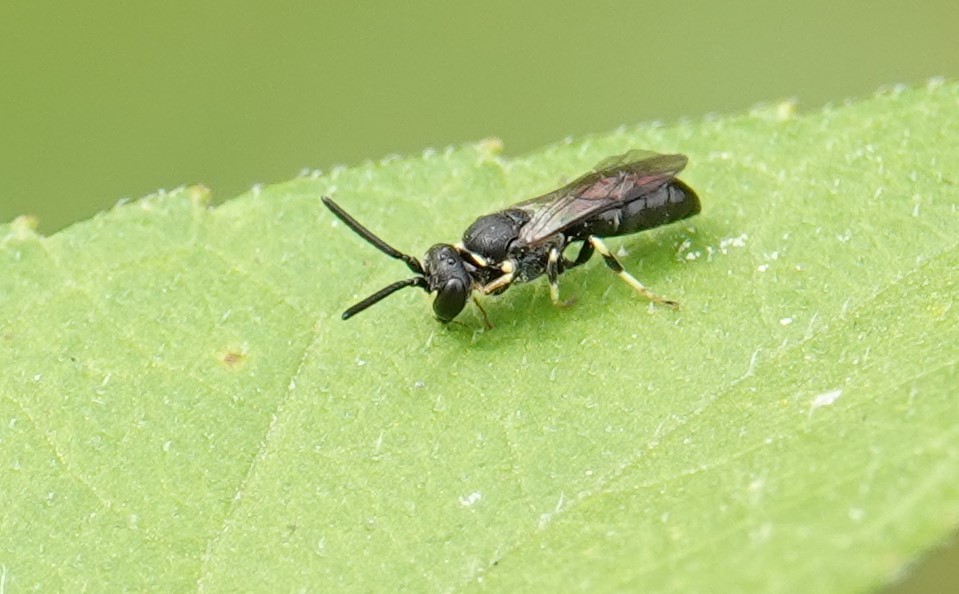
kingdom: Animalia
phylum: Arthropoda
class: Insecta
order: Hymenoptera
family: Colletidae
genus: Hylaeus
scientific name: Hylaeus modestus
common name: Yellow-faced bee
